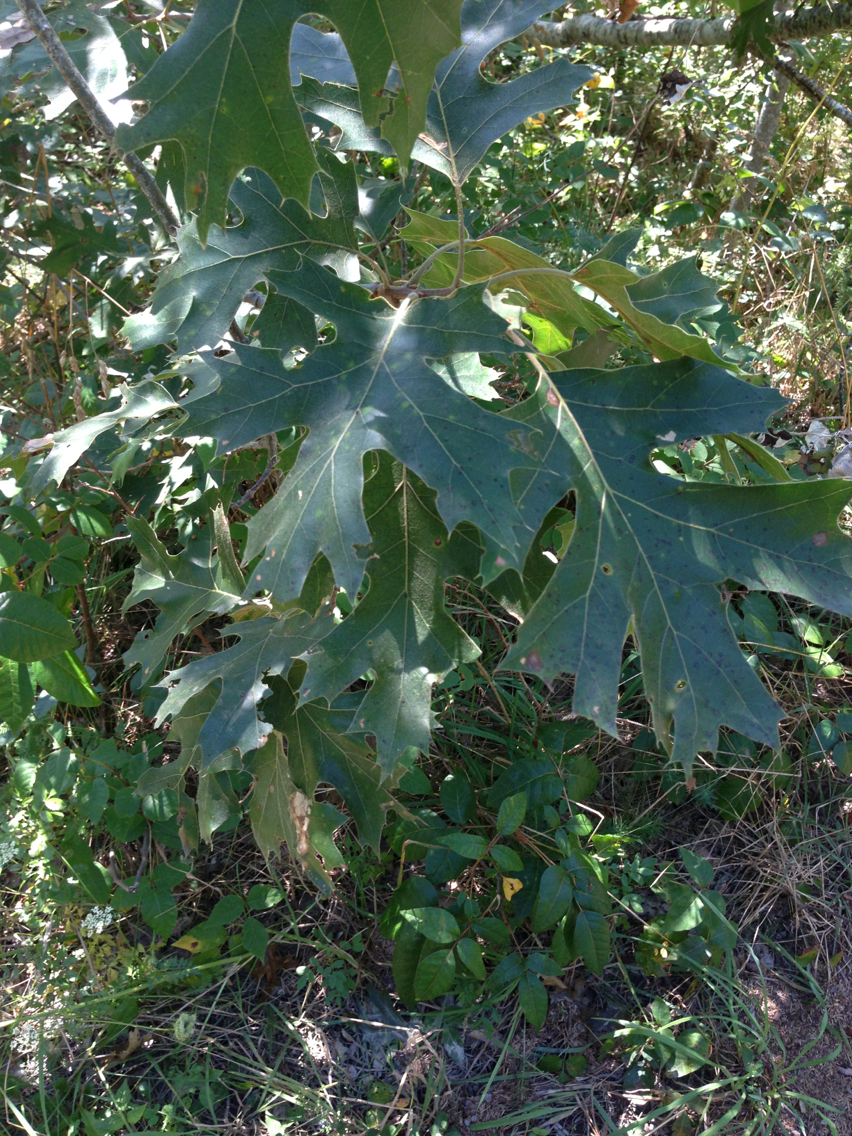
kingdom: Plantae
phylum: Tracheophyta
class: Magnoliopsida
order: Fagales
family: Fagaceae
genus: Quercus
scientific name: Quercus velutina
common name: Black oak
